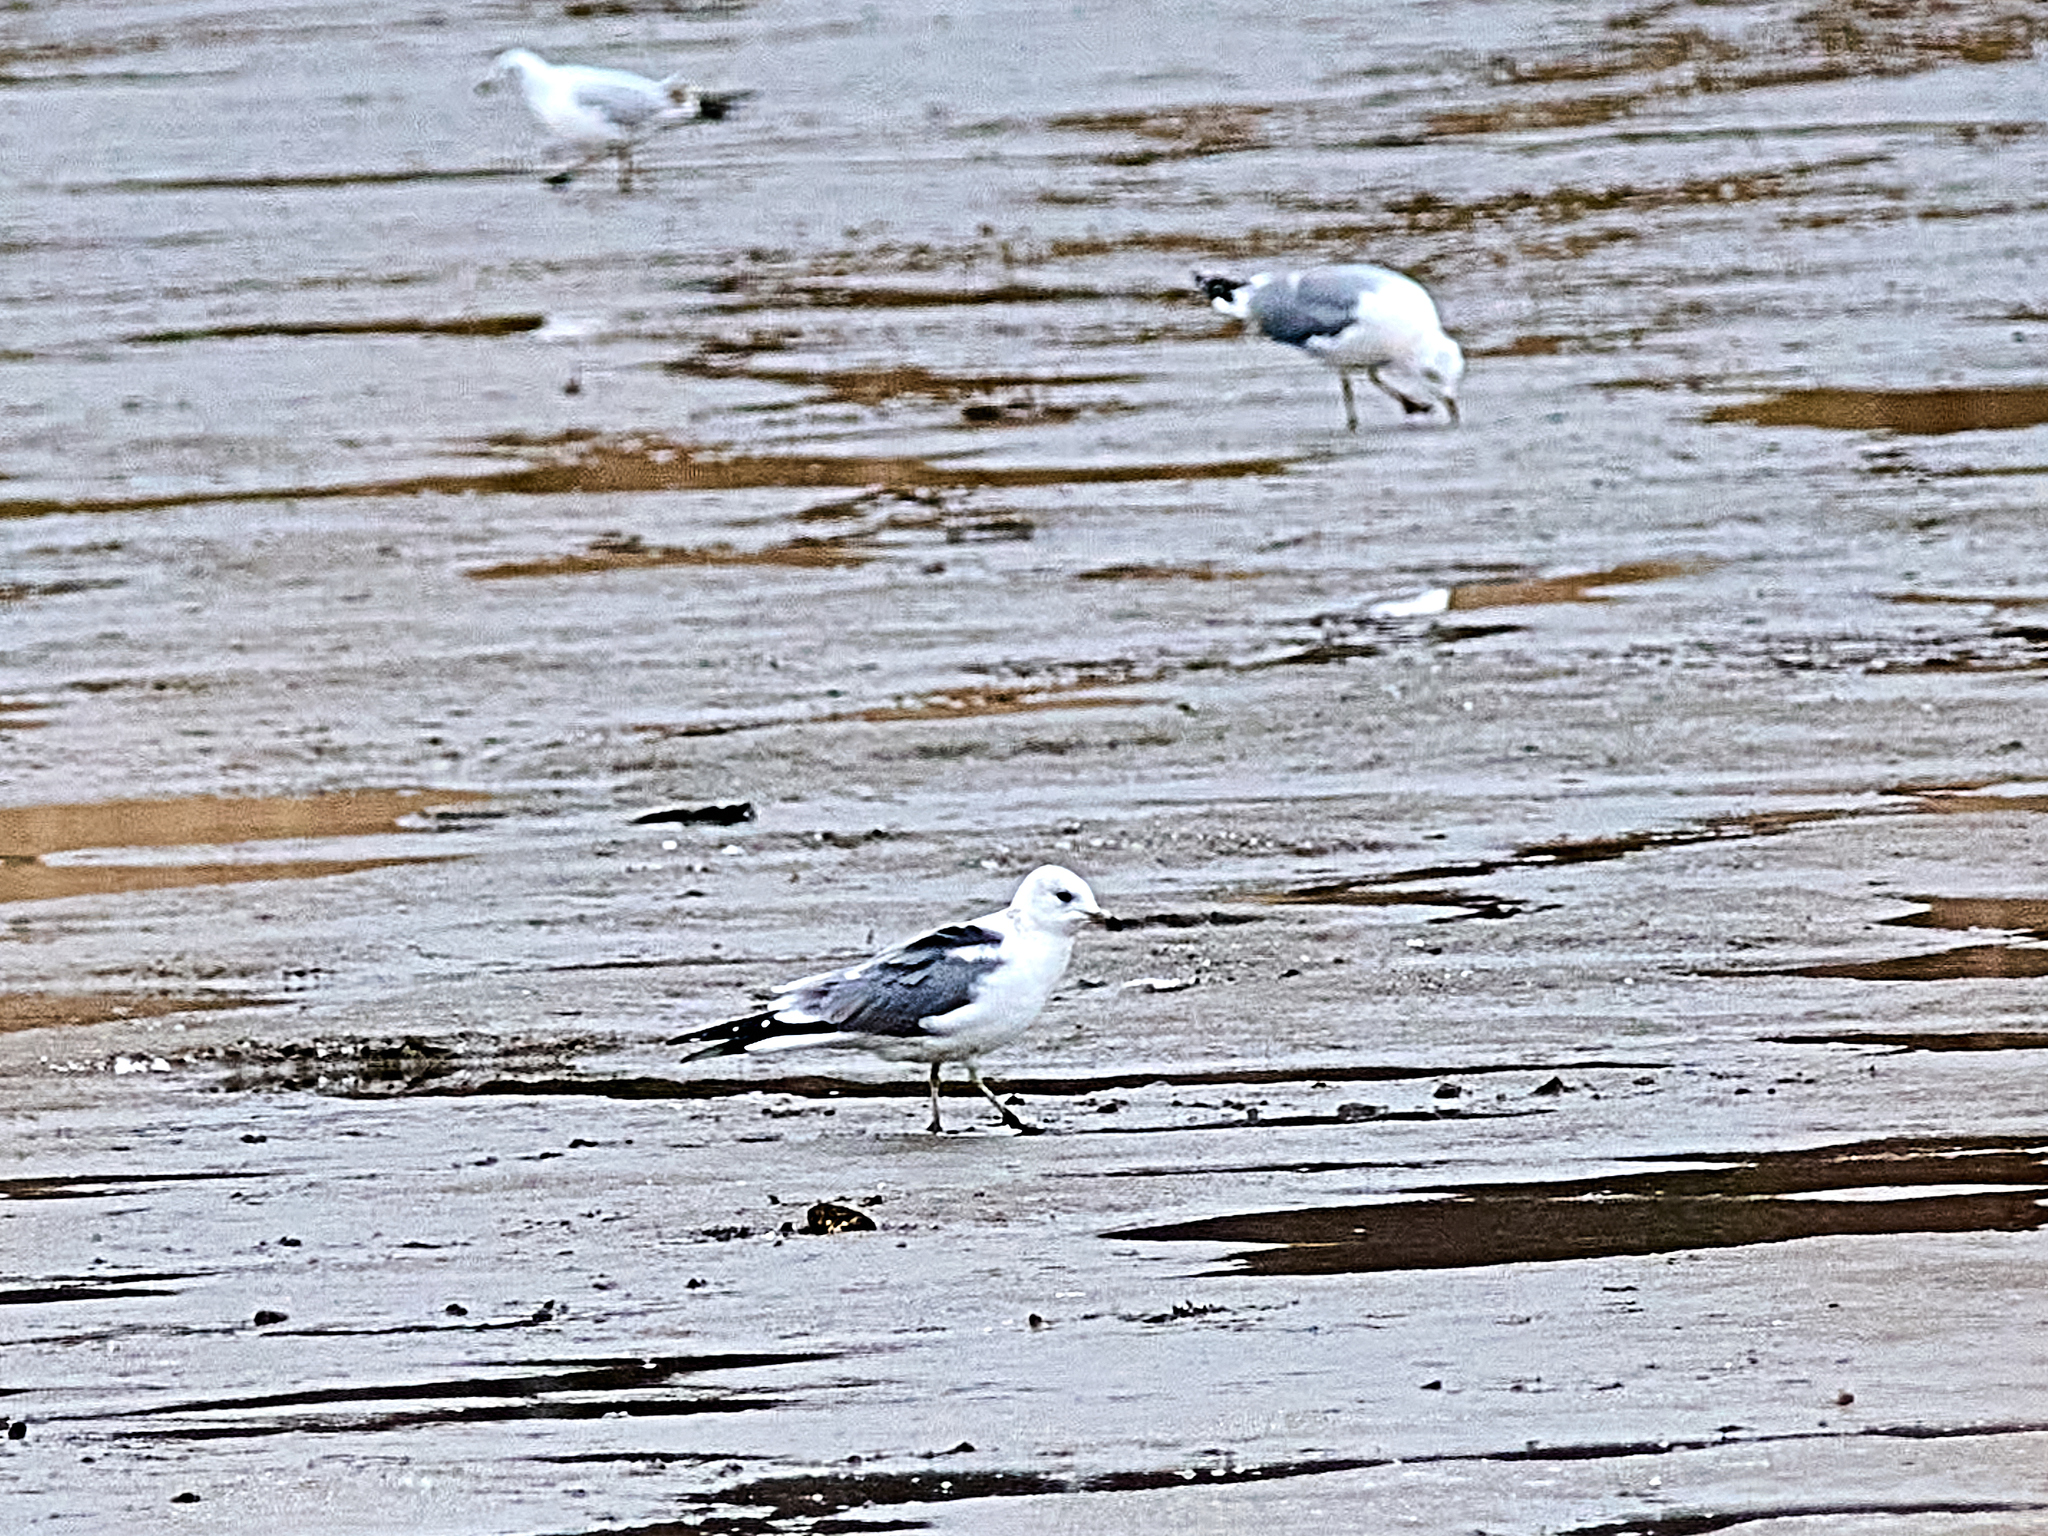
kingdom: Animalia
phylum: Chordata
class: Aves
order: Charadriiformes
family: Laridae
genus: Larus
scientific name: Larus canus
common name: Mew gull
